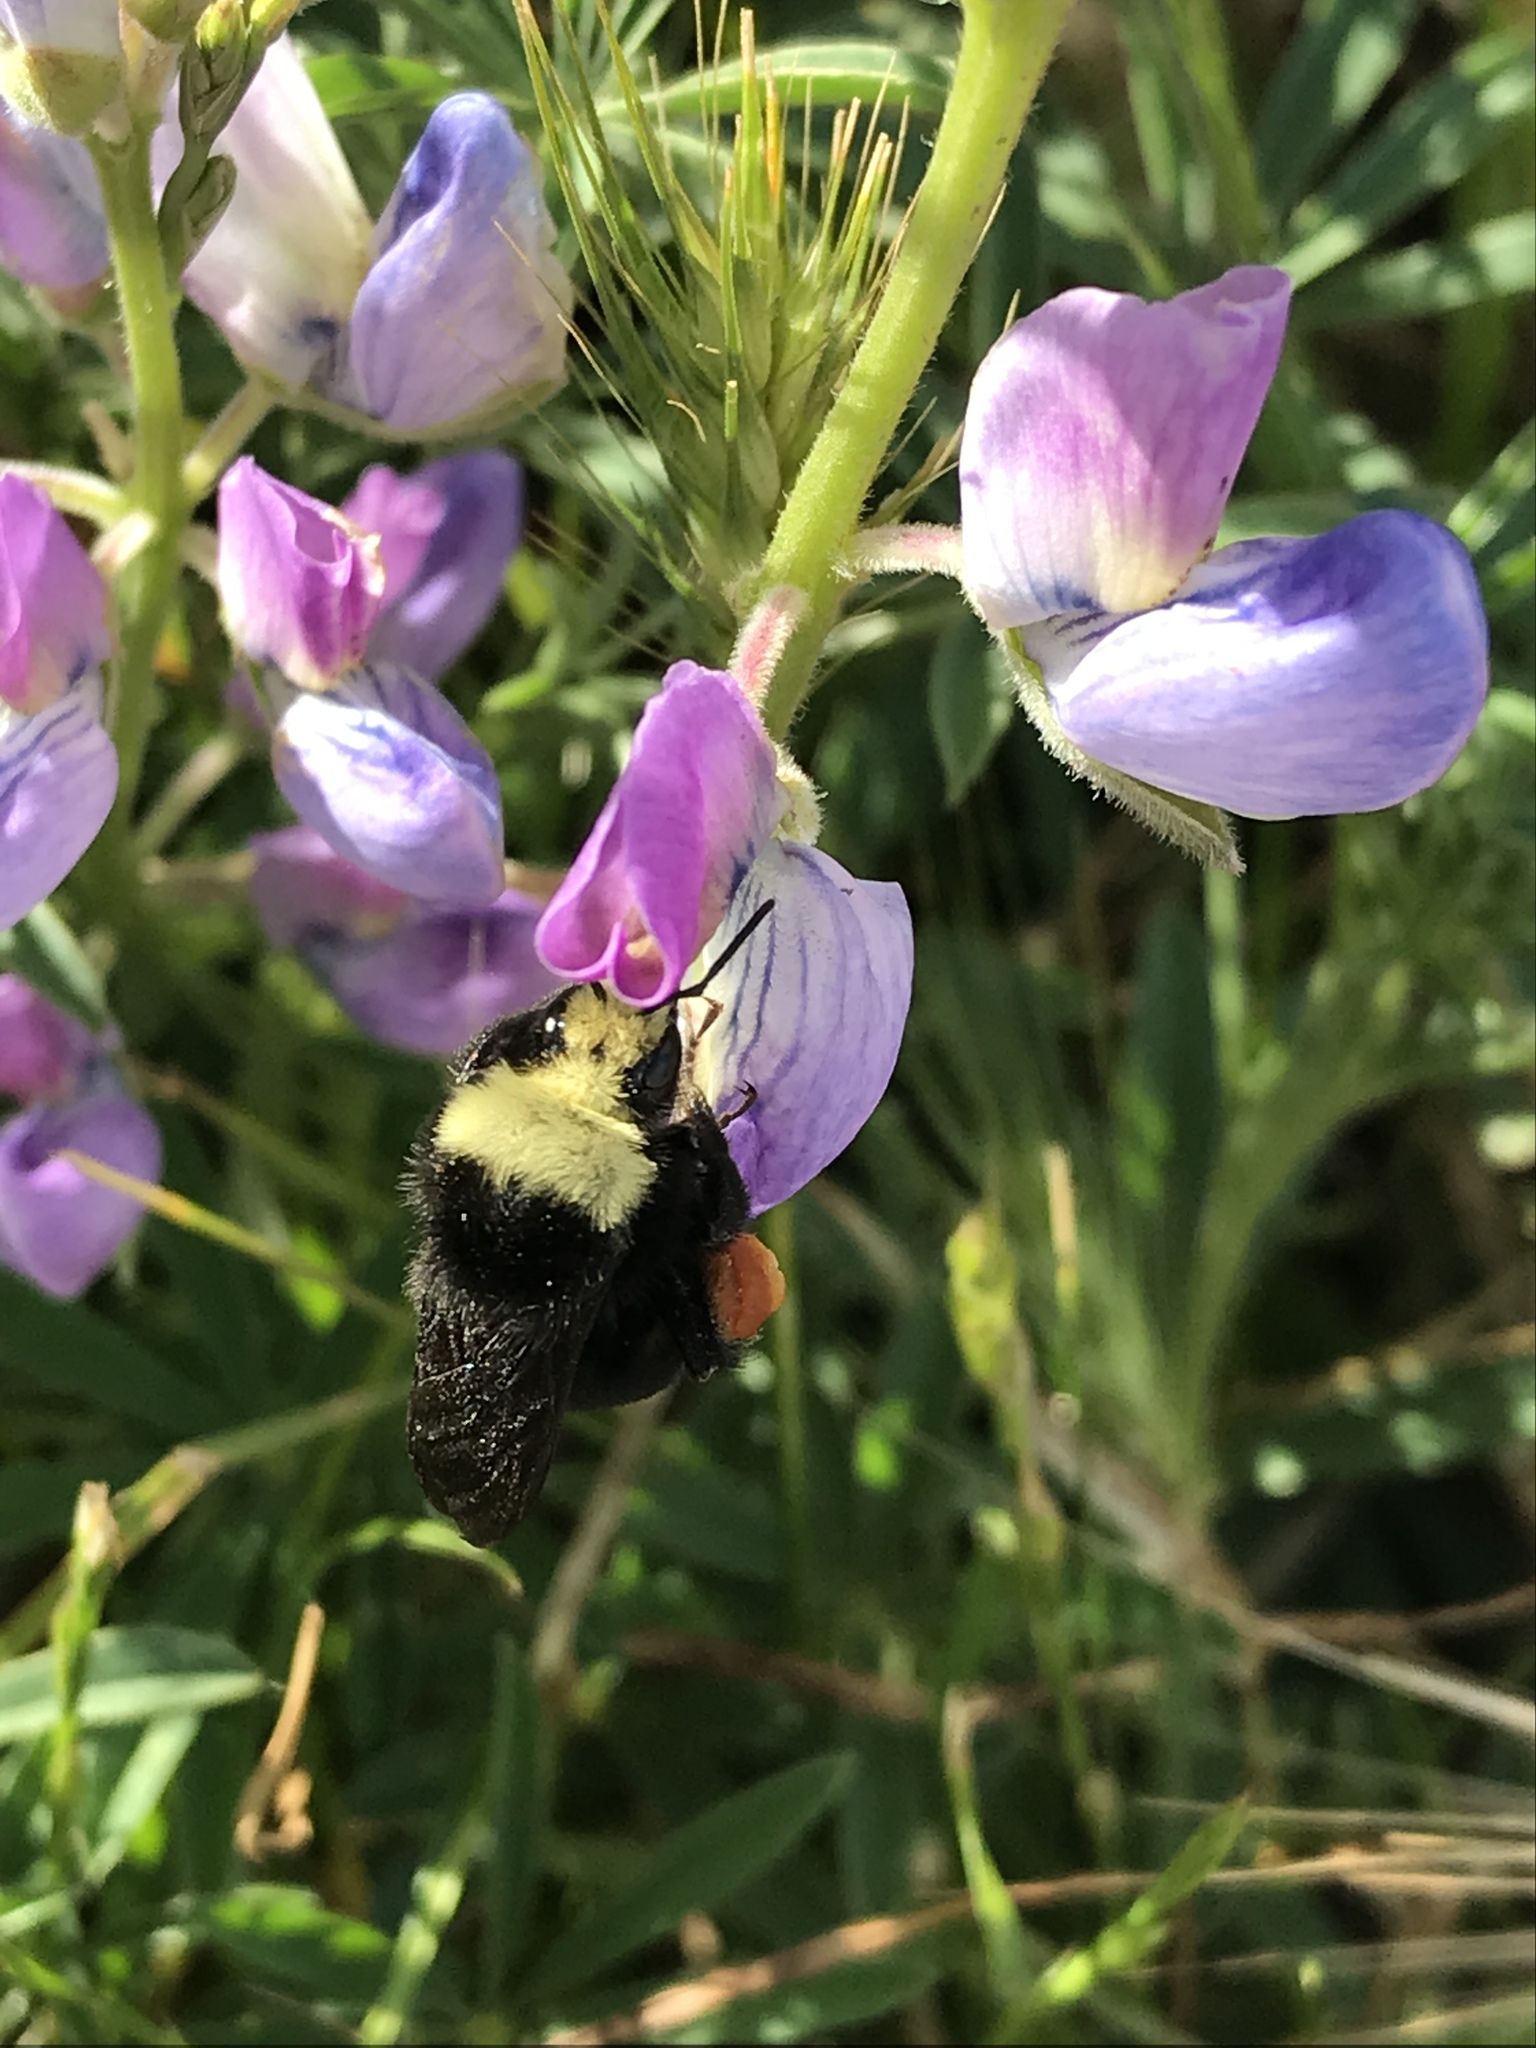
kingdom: Animalia
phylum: Arthropoda
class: Insecta
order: Hymenoptera
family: Apidae
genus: Bombus
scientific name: Bombus vosnesenskii
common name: Vosnesensky bumble bee
